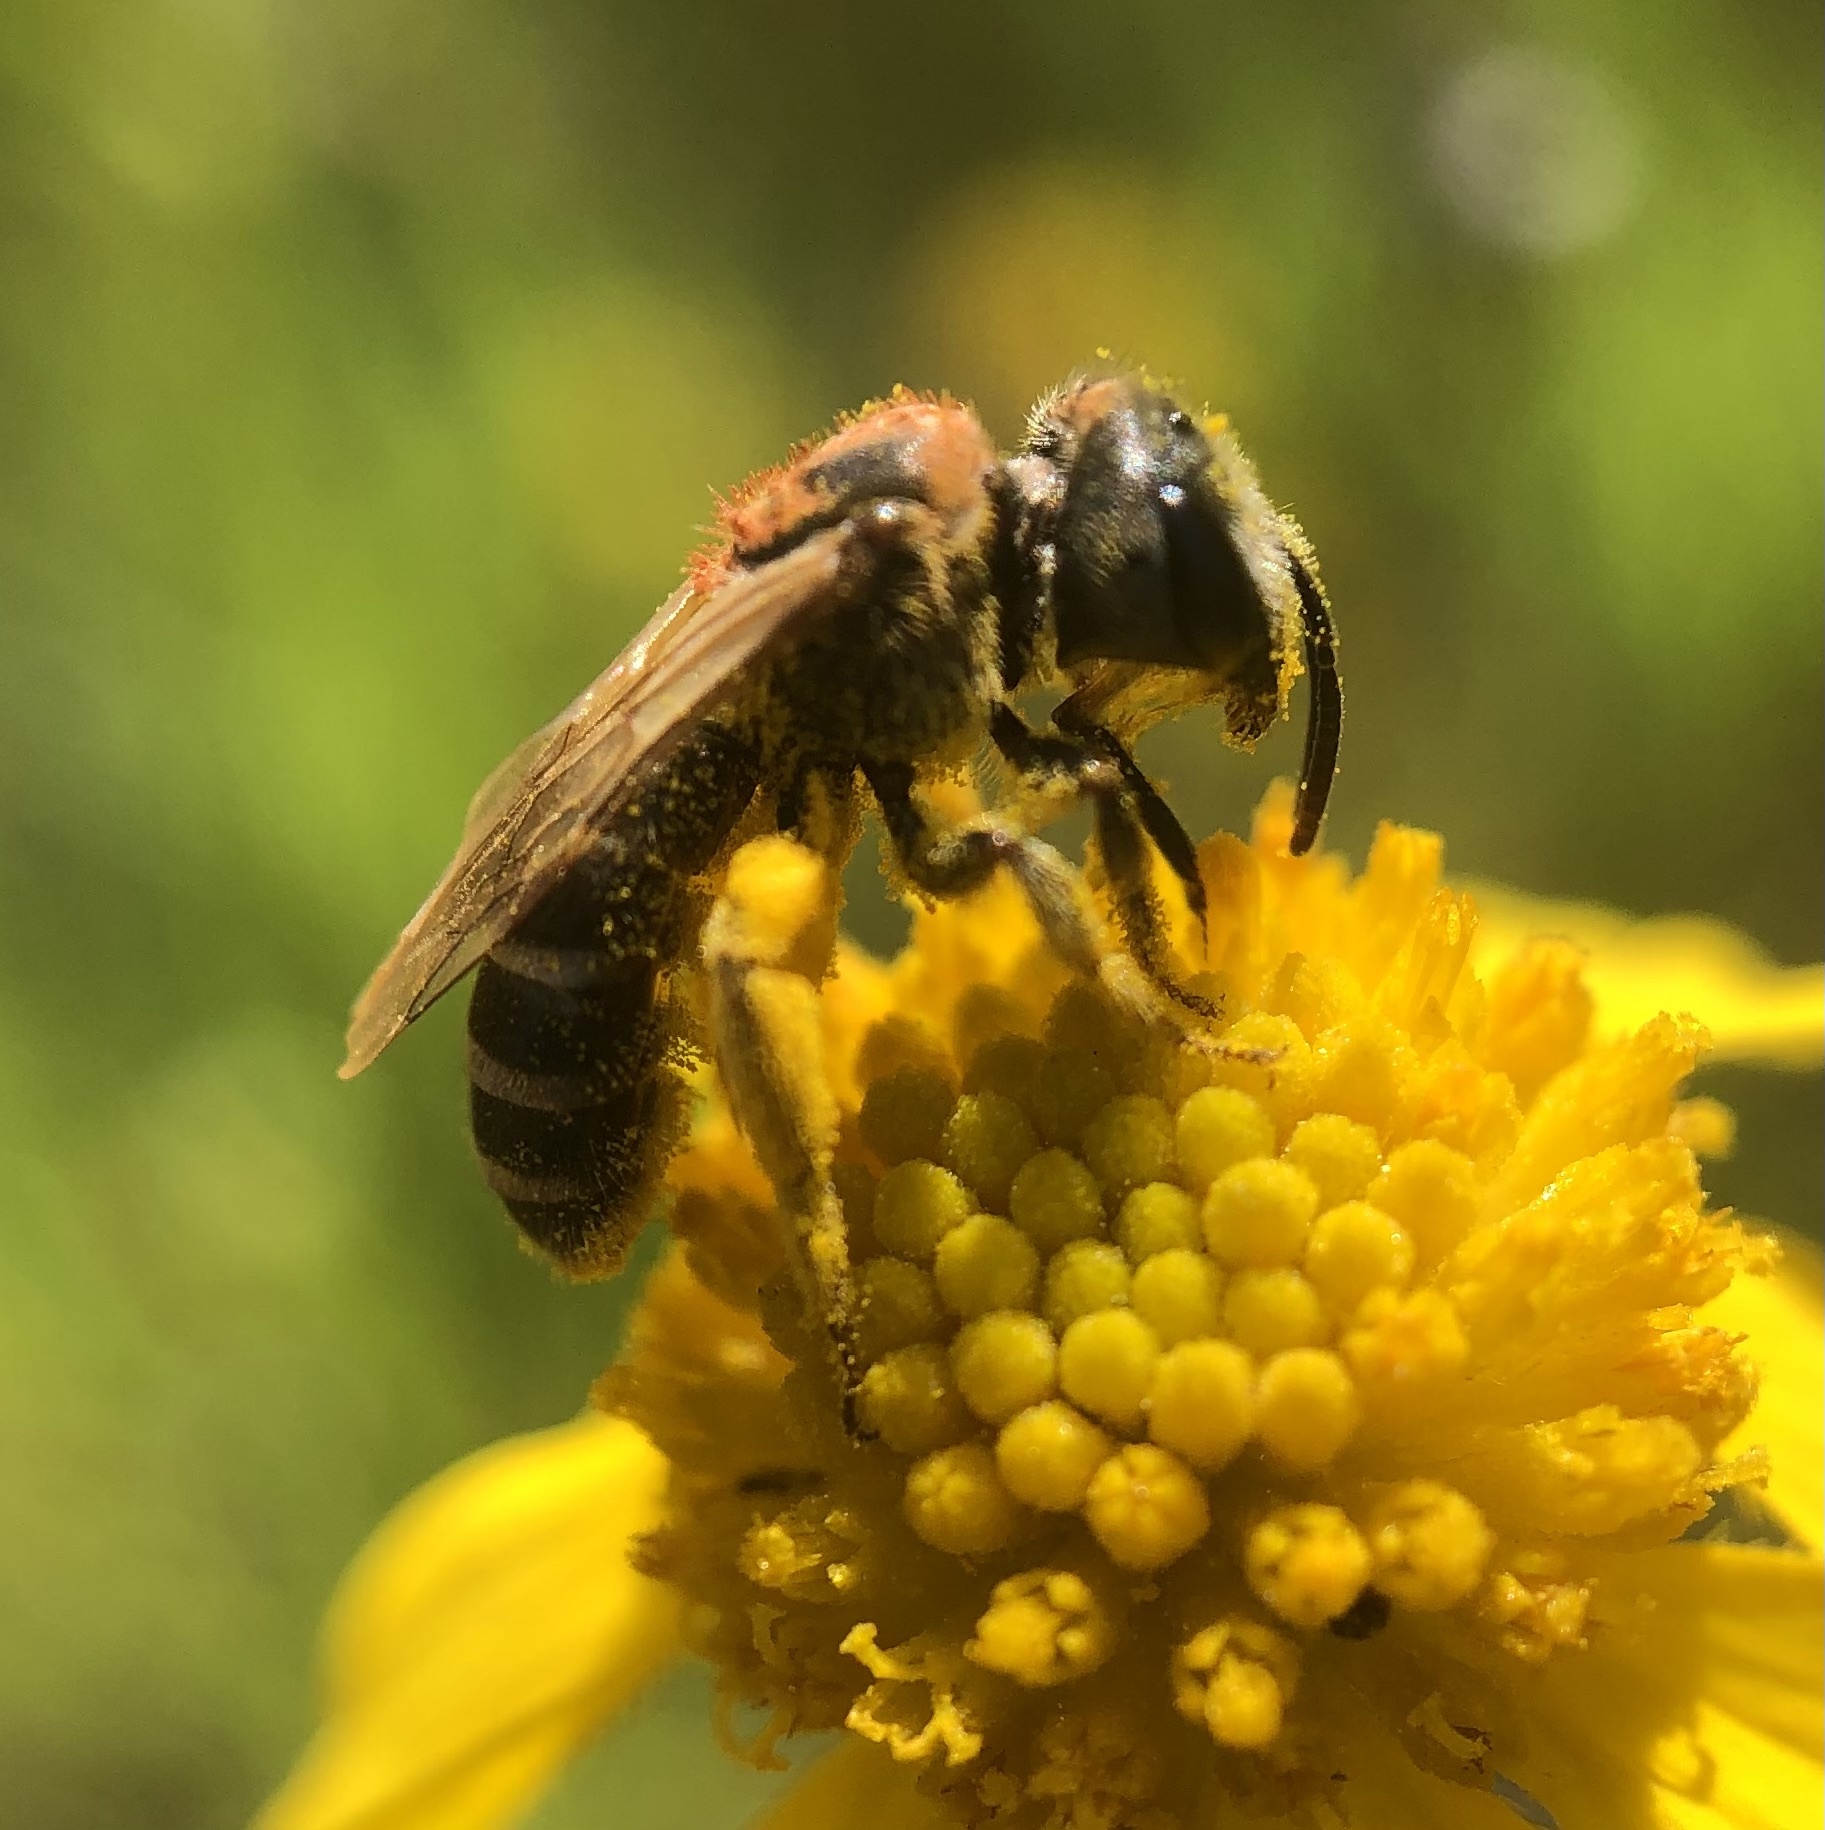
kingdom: Animalia
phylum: Arthropoda
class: Insecta
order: Hymenoptera
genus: Odontalictus
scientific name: Odontalictus
